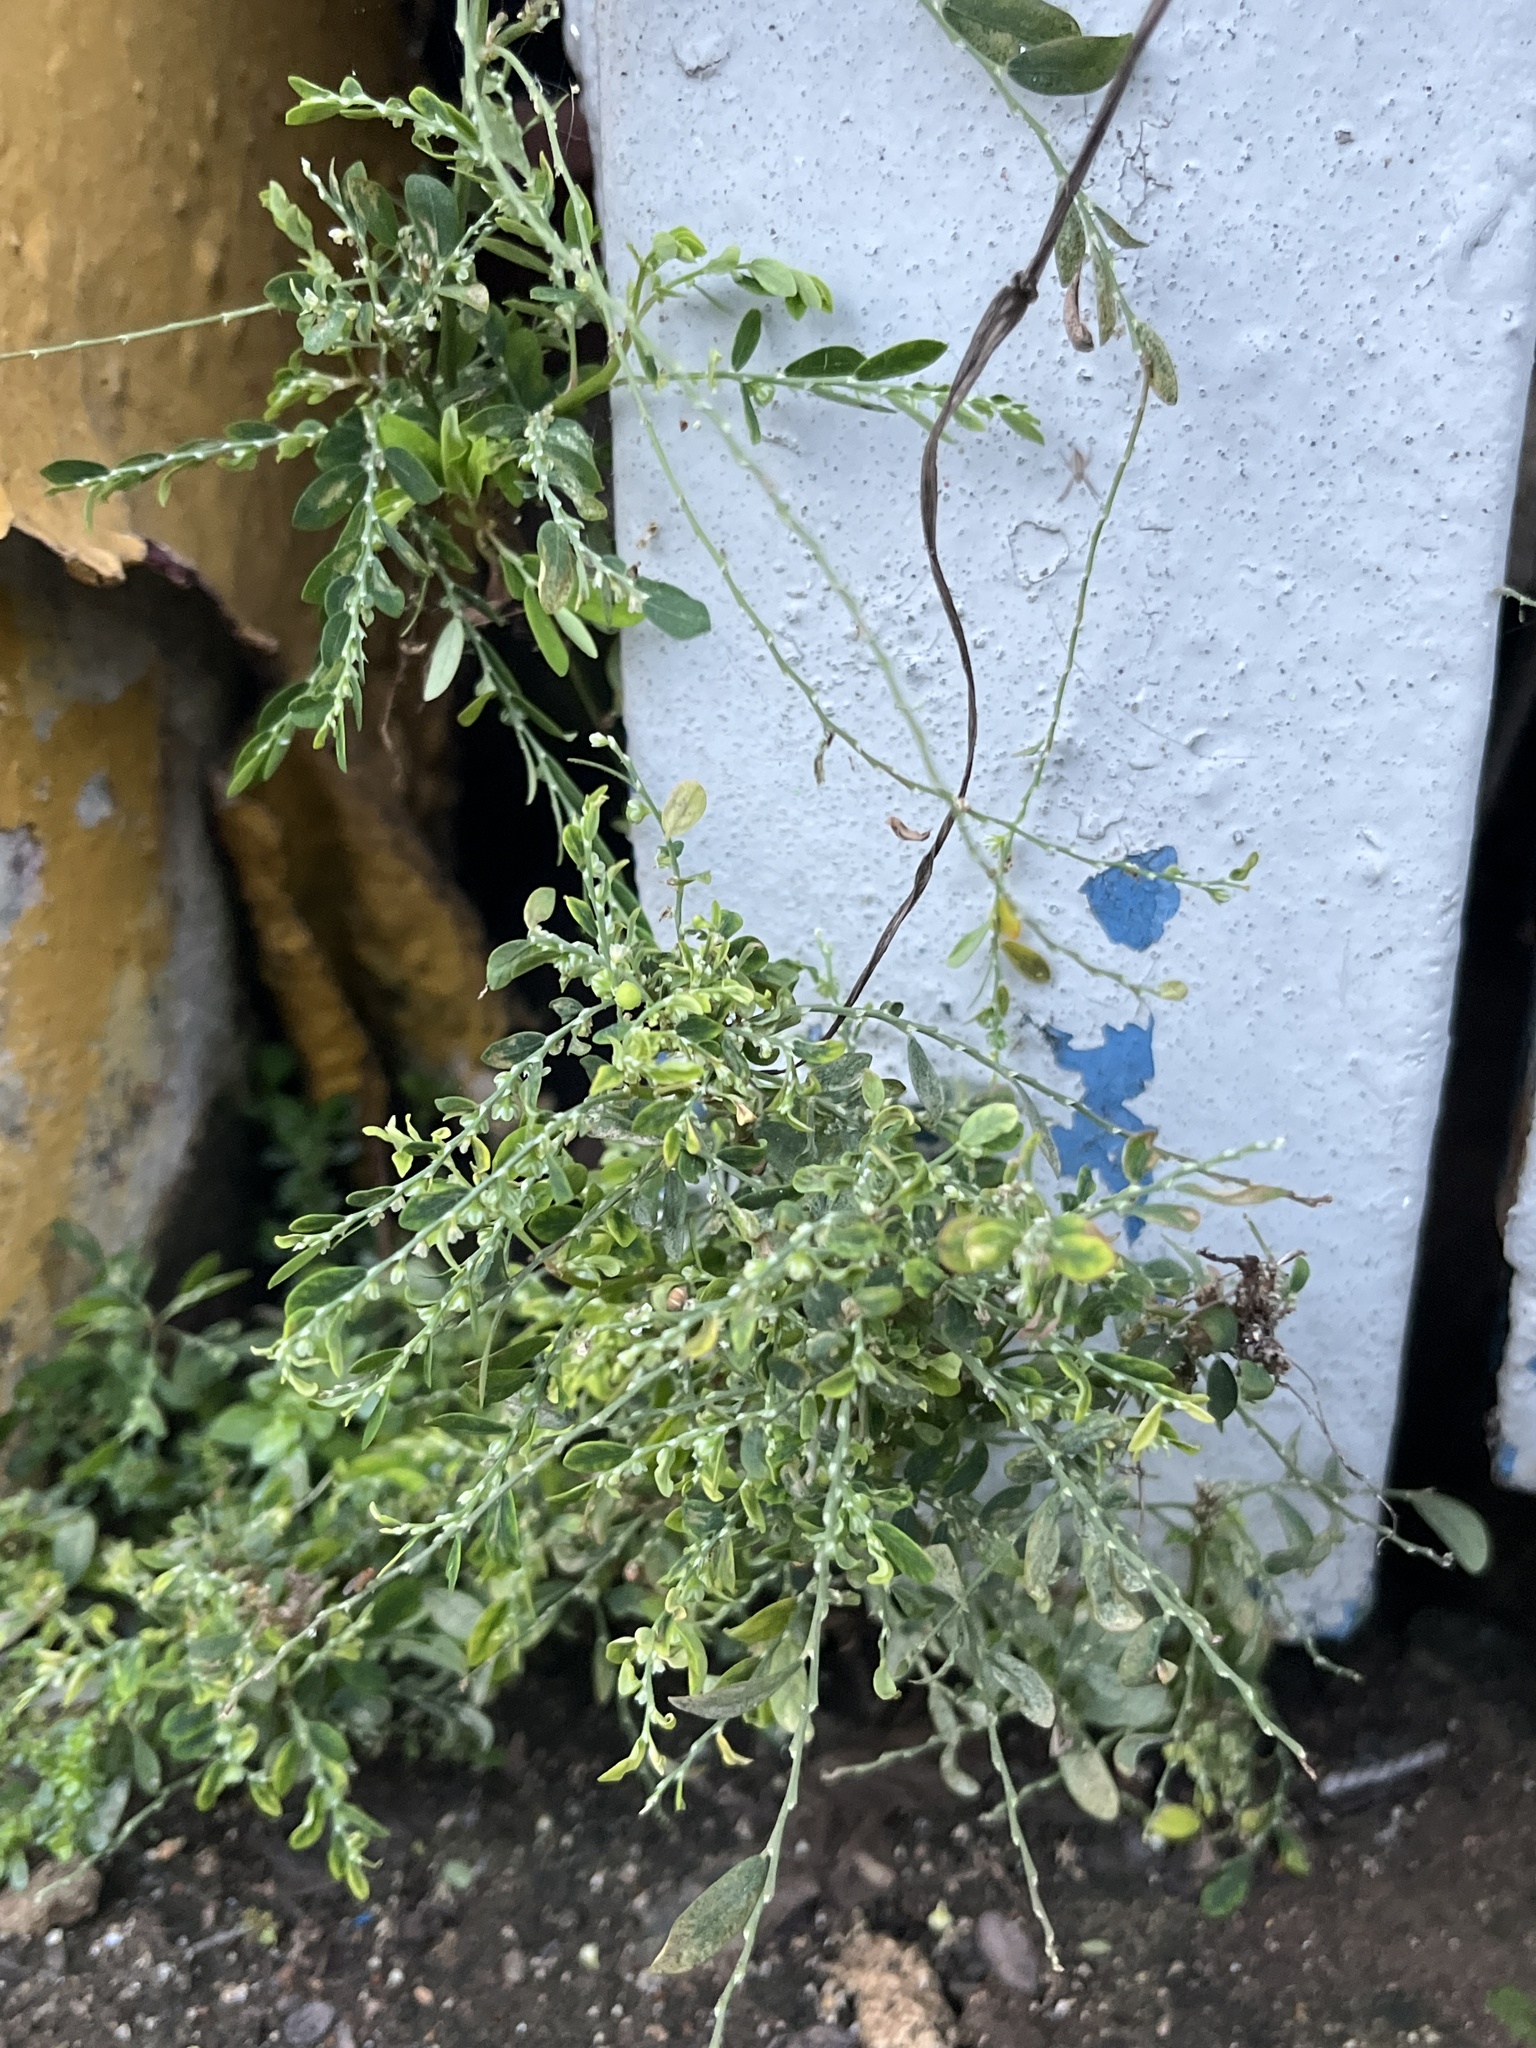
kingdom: Plantae
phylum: Tracheophyta
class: Magnoliopsida
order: Malpighiales
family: Phyllanthaceae
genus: Phyllanthus
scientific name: Phyllanthus debilis
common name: Niruri
